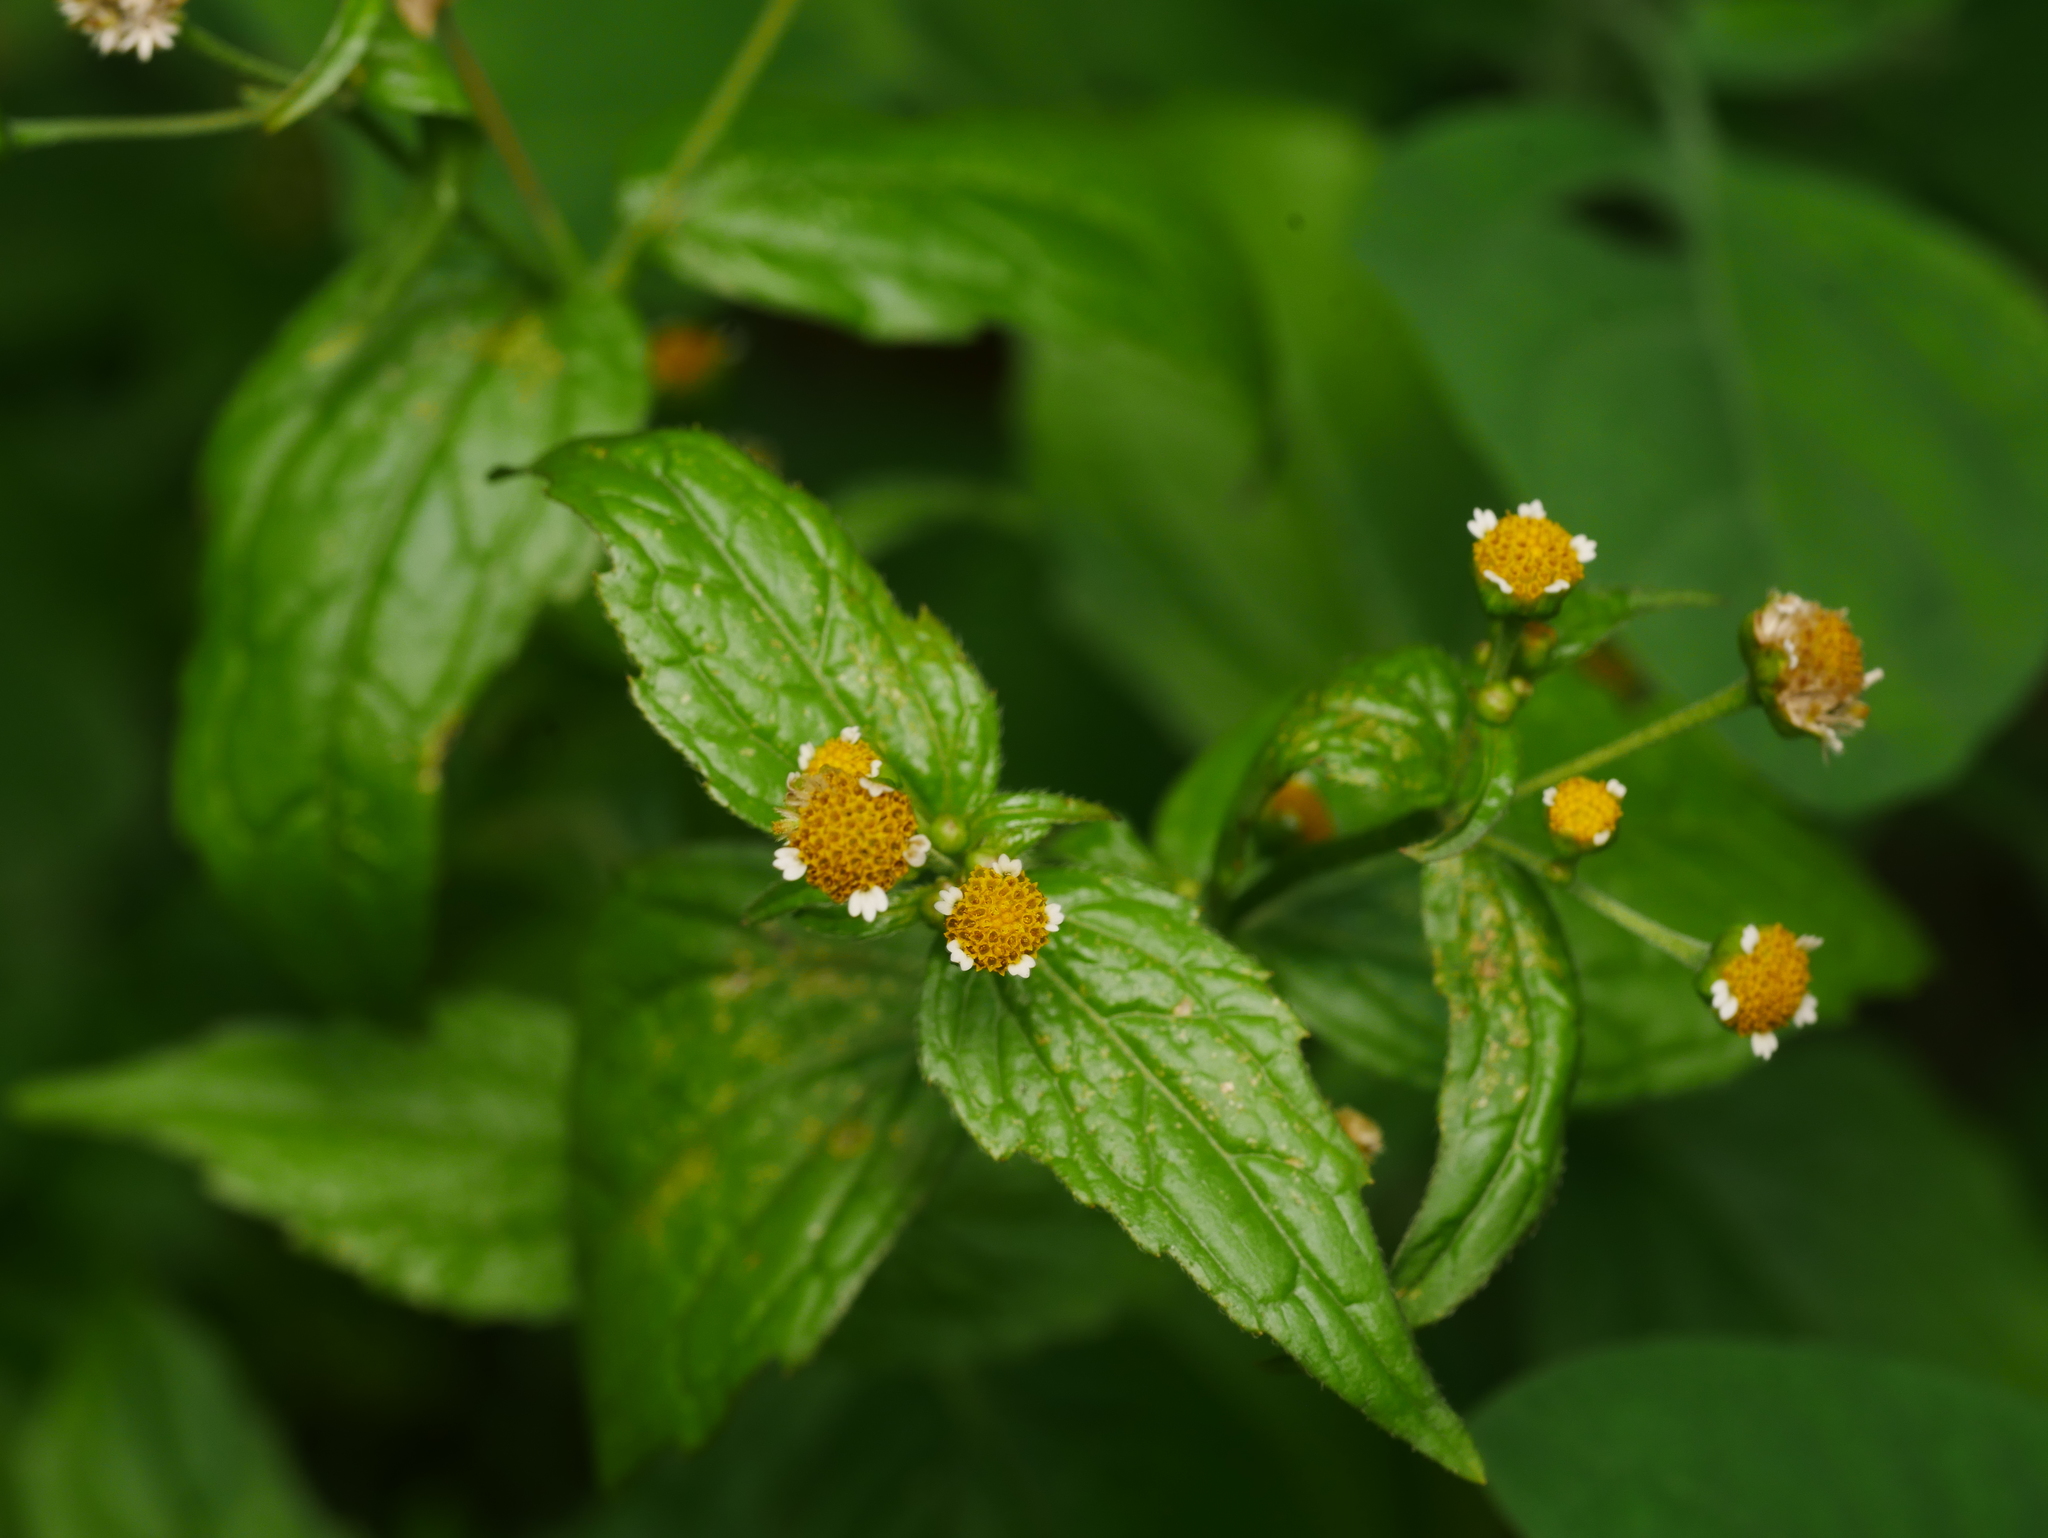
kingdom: Plantae
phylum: Tracheophyta
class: Magnoliopsida
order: Asterales
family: Asteraceae
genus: Galinsoga
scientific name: Galinsoga parviflora
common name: Gallant soldier
